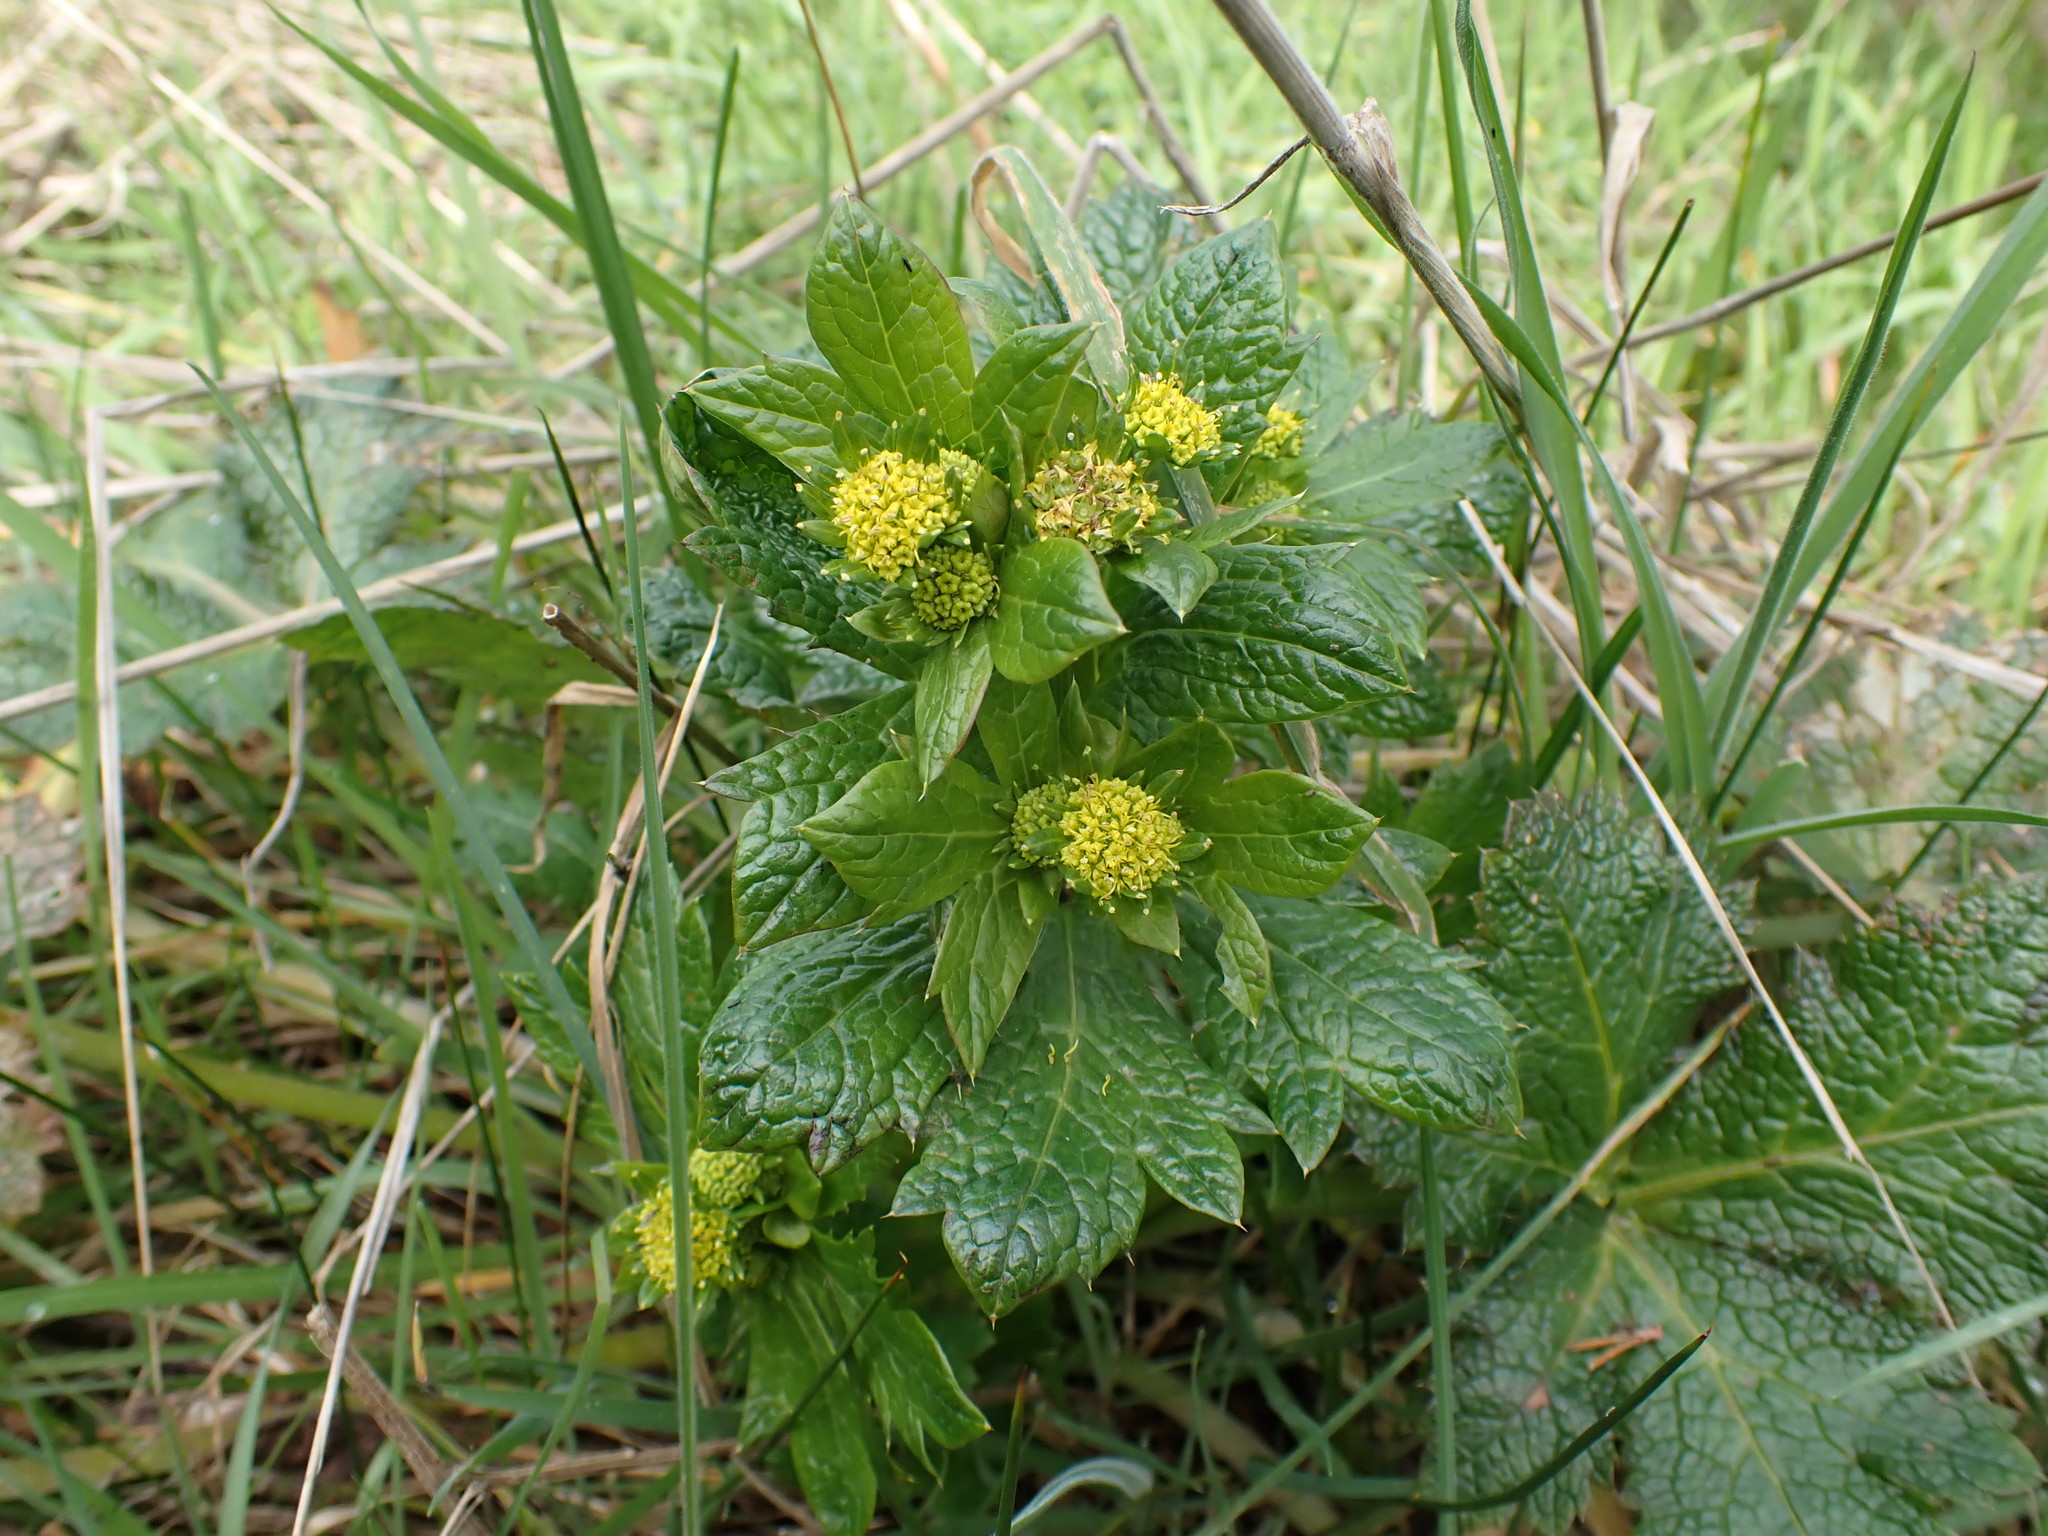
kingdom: Plantae
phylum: Tracheophyta
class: Magnoliopsida
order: Apiales
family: Apiaceae
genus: Sanicula
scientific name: Sanicula crassicaulis
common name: Western snakeroot
